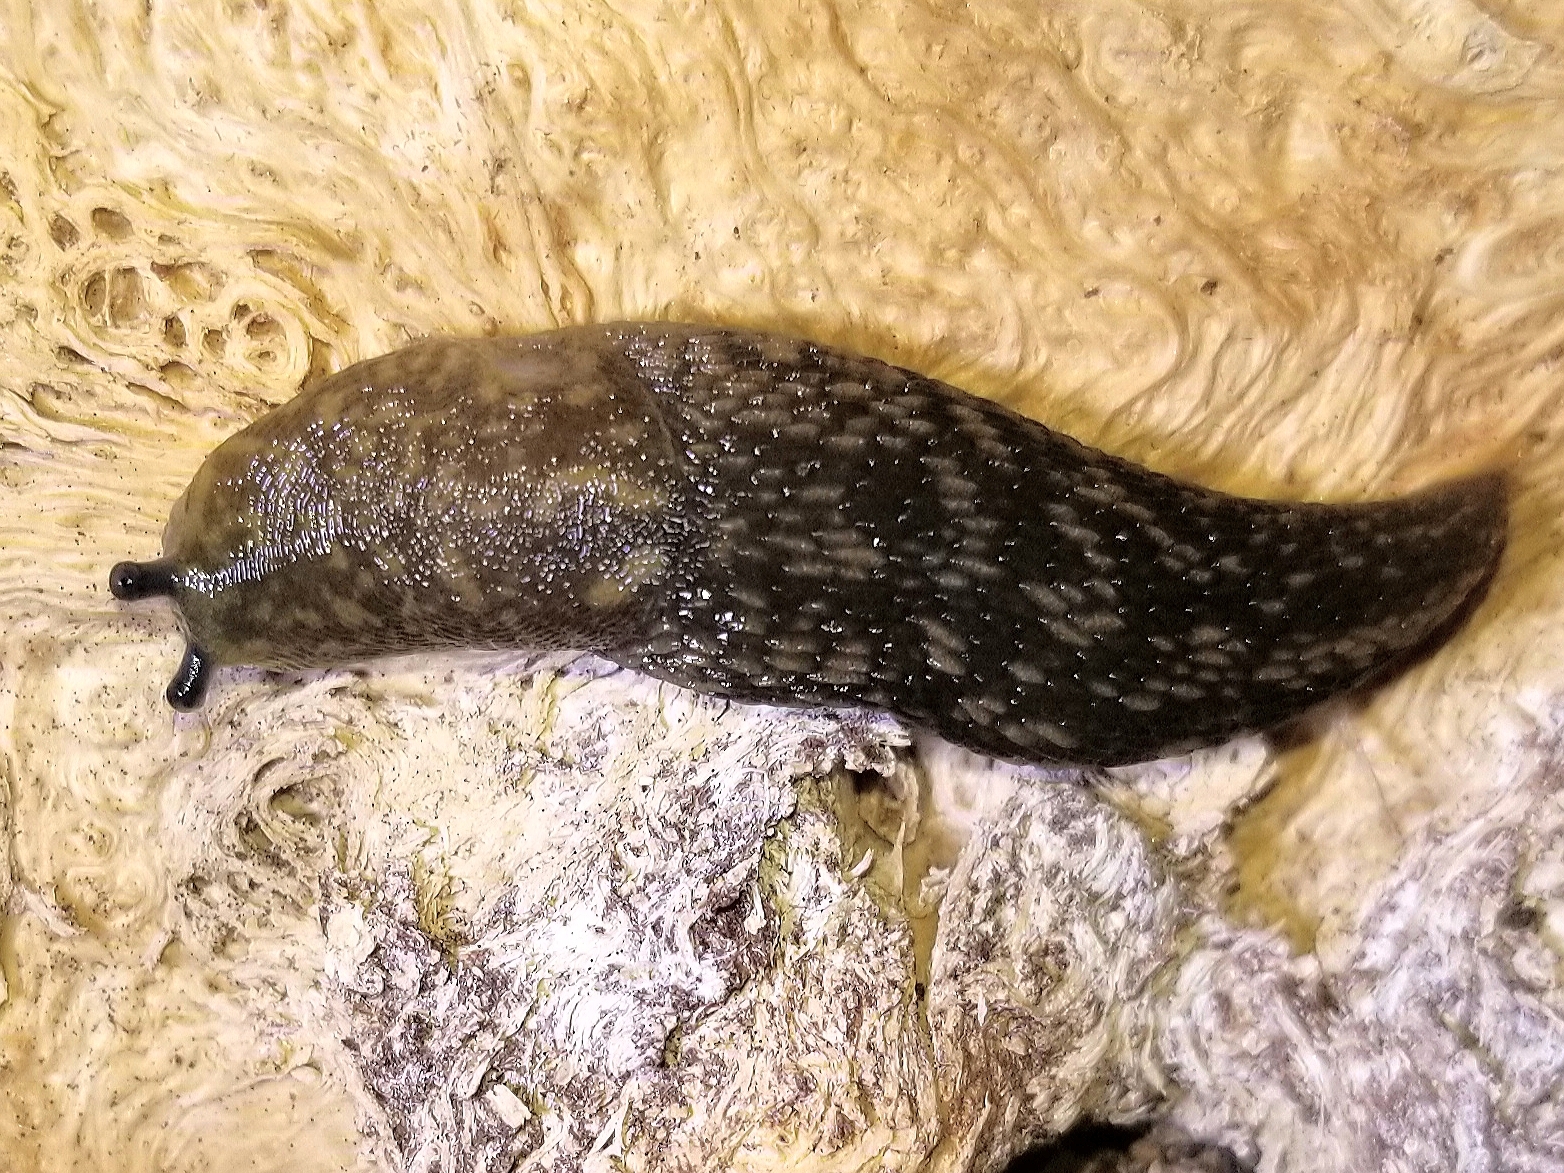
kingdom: Animalia
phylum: Mollusca
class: Gastropoda
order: Stylommatophora
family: Limacidae
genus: Limacus
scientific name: Limacus flavus
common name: Yellow gardenslug
